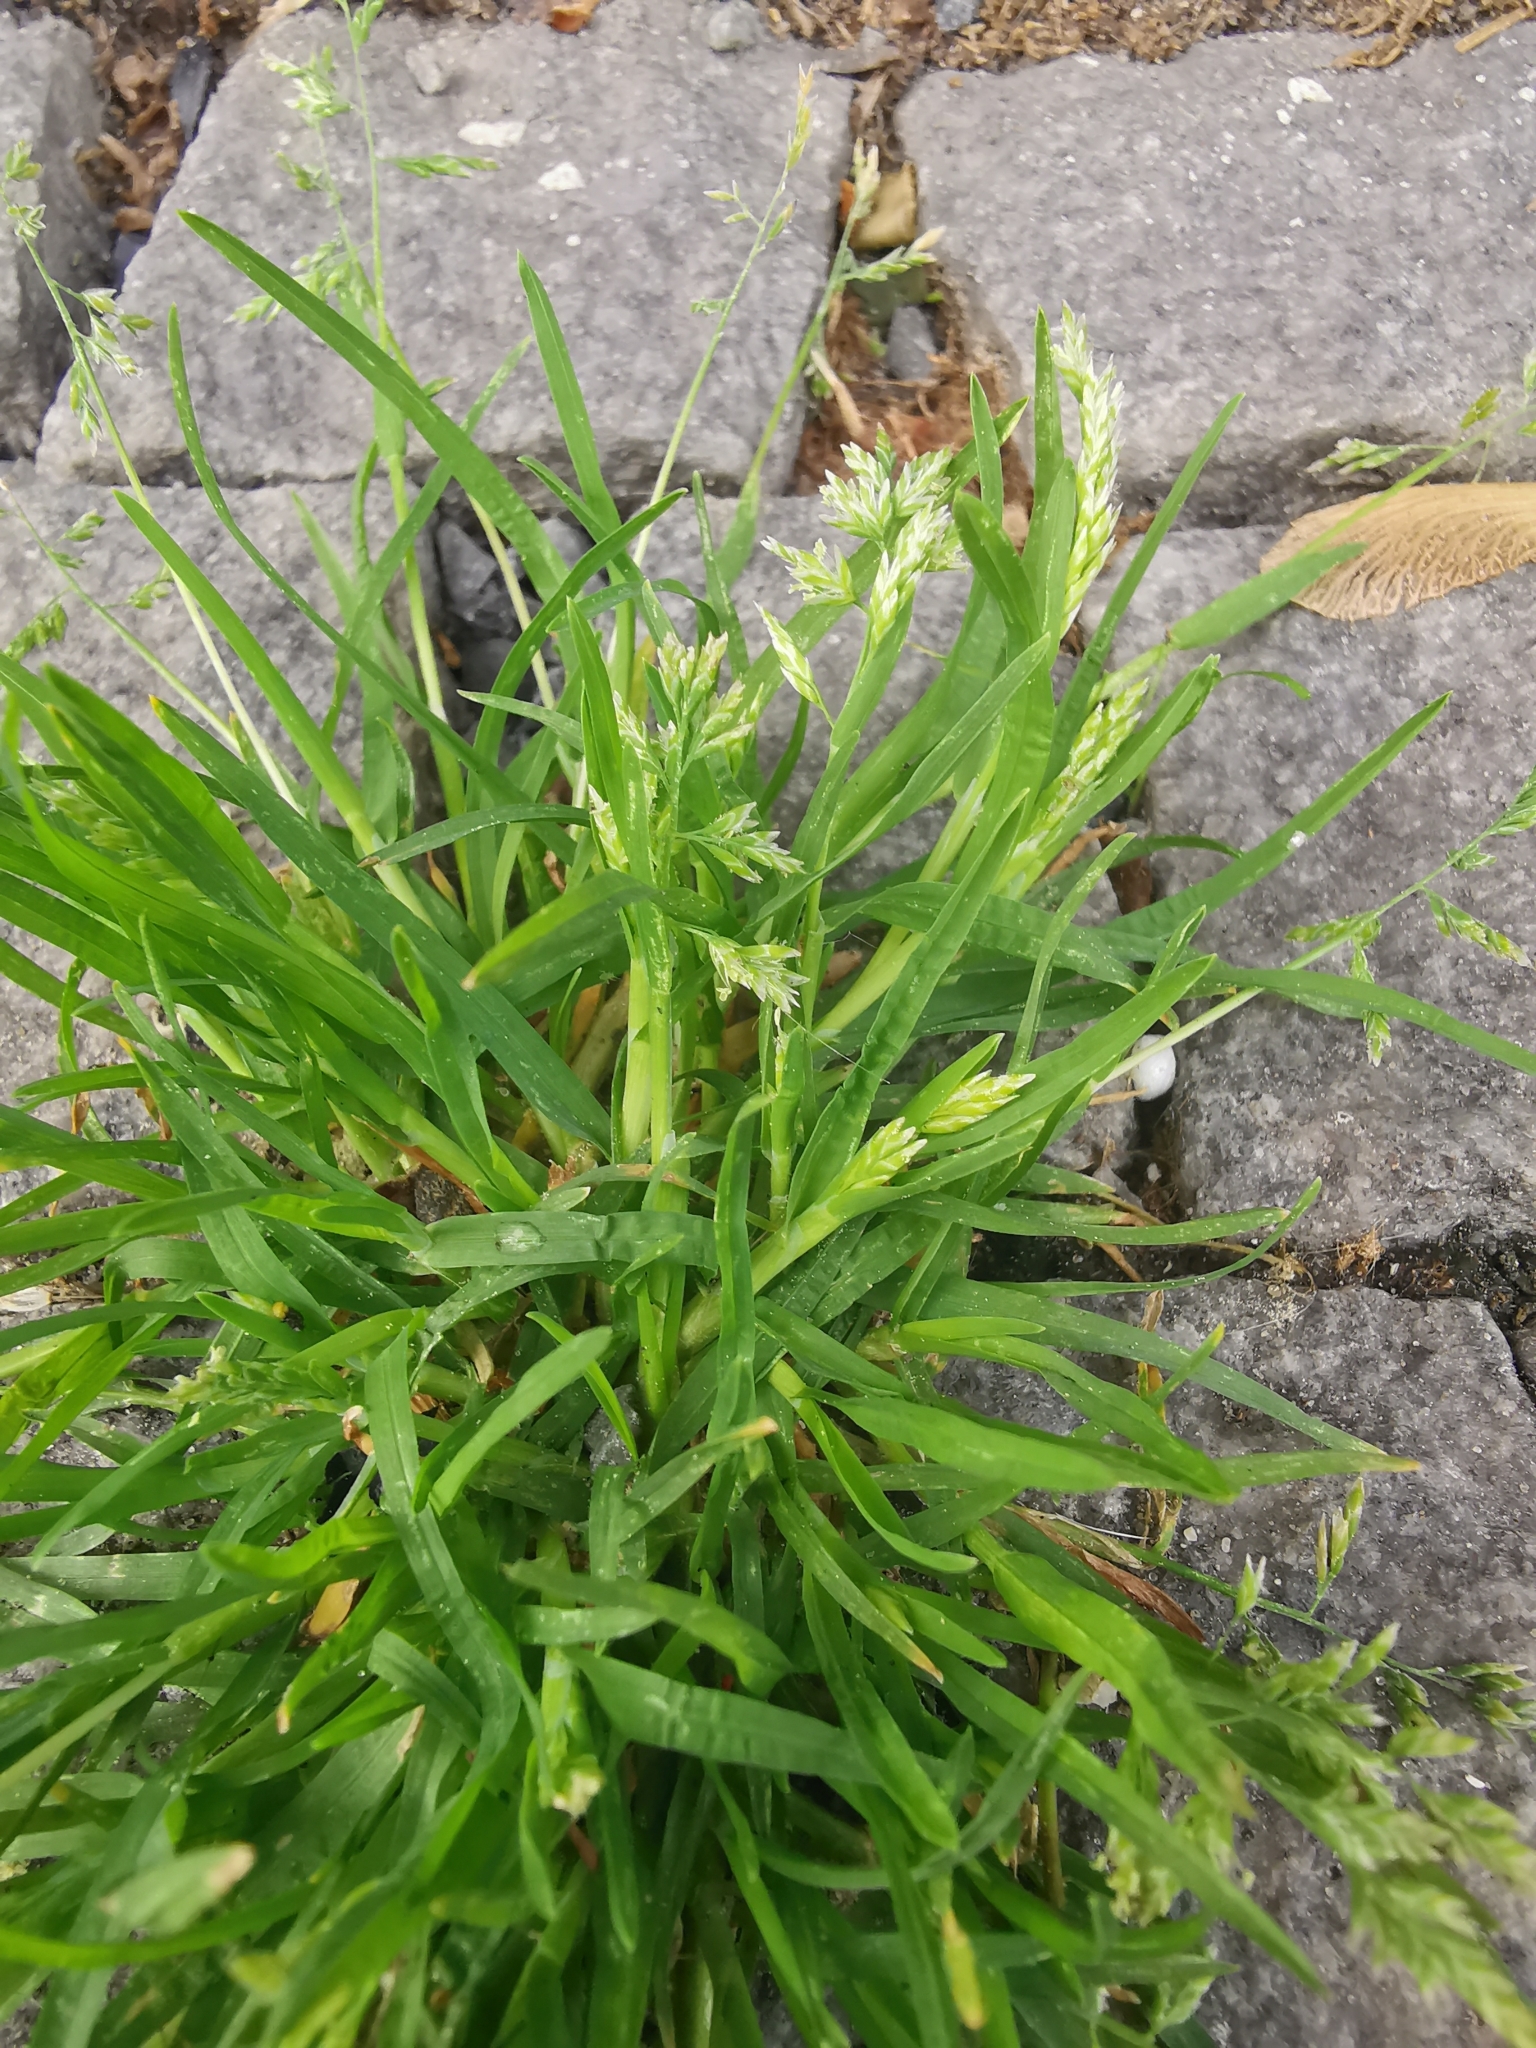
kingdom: Plantae
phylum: Tracheophyta
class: Liliopsida
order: Poales
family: Poaceae
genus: Poa
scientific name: Poa annua
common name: Annual bluegrass
